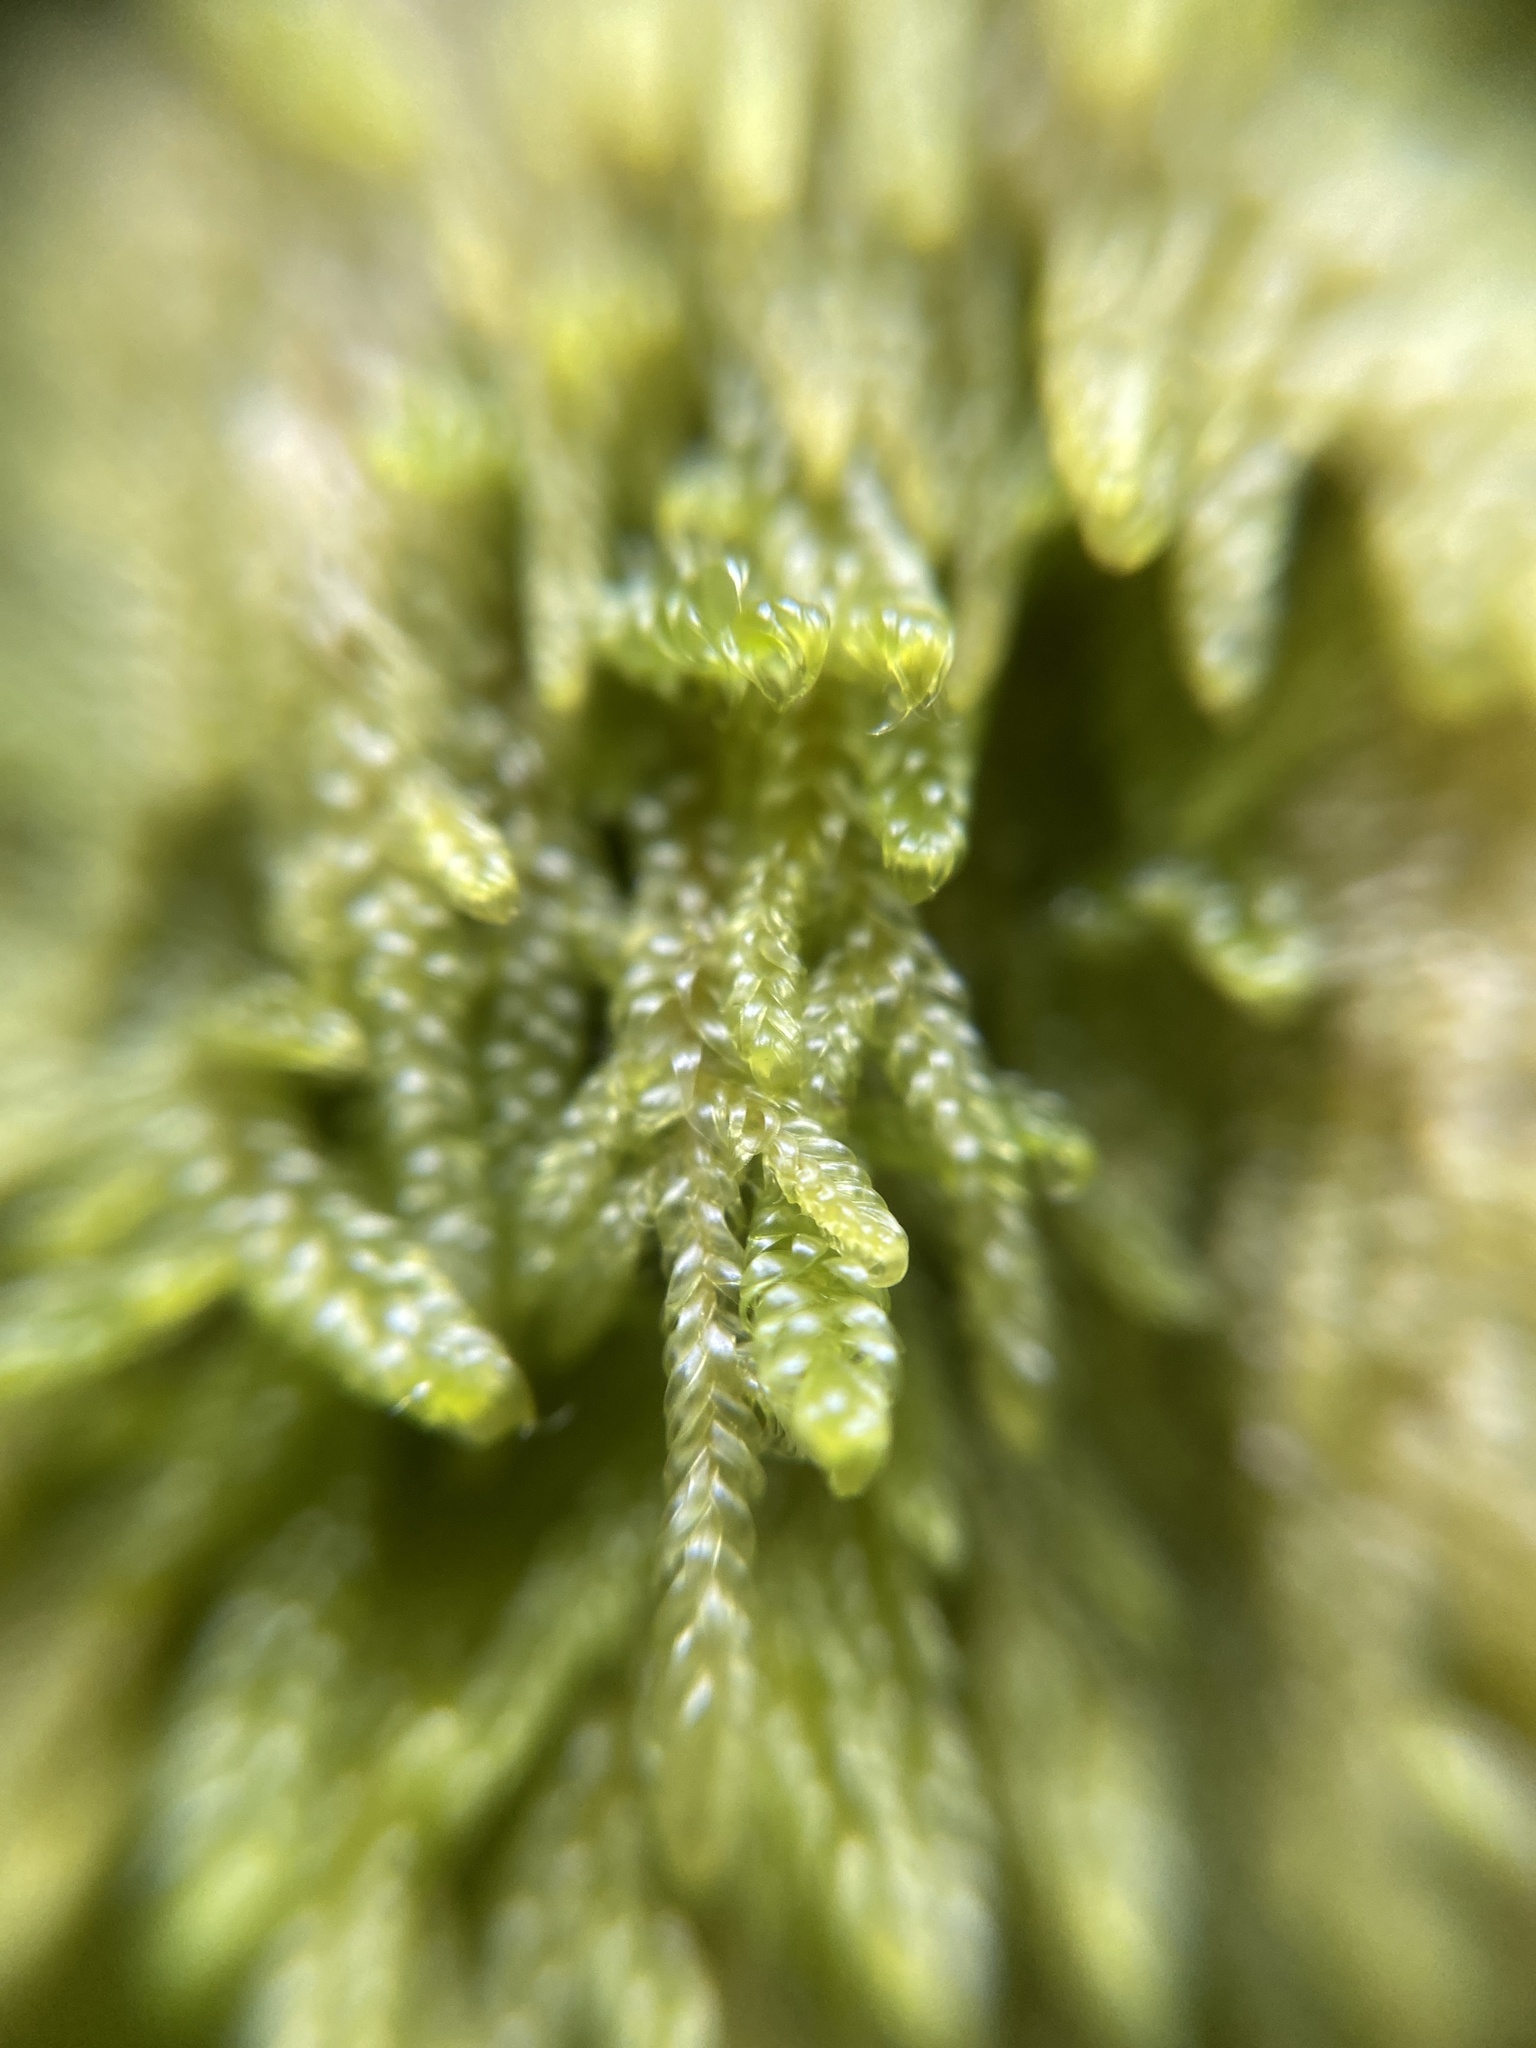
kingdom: Plantae
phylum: Marchantiophyta
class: Jungermanniopsida
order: Jungermanniales
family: Lepidoziaceae
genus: Bazzania
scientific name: Bazzania trilobata
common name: Three-lobed whipwort
